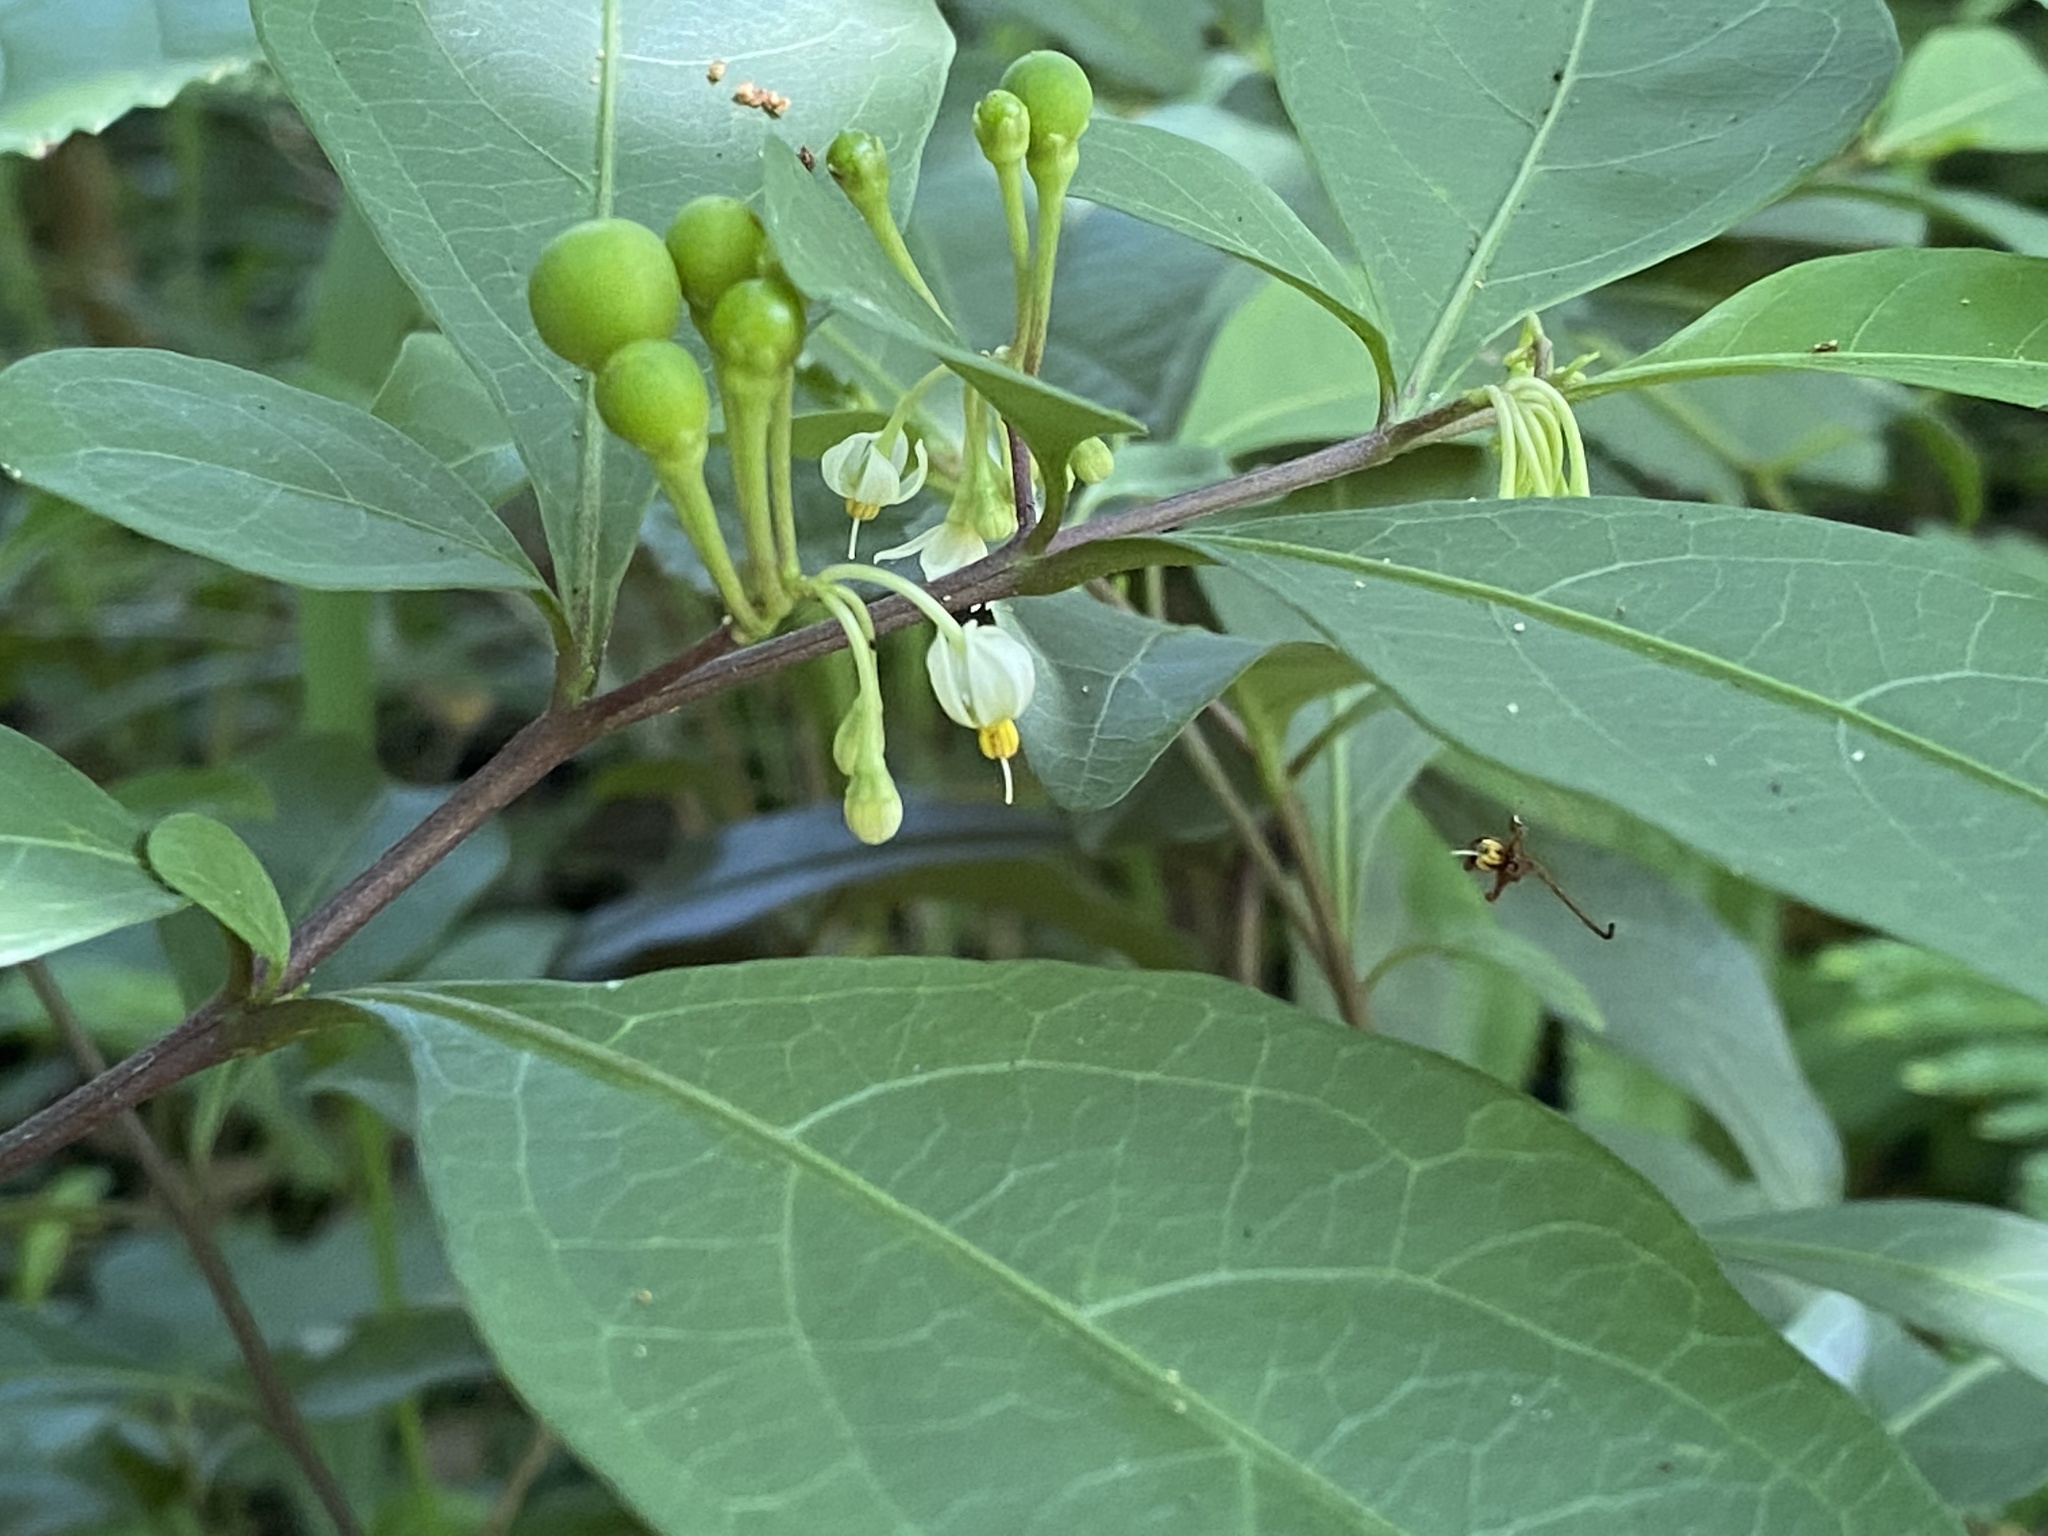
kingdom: Plantae
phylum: Tracheophyta
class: Magnoliopsida
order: Solanales
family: Solanaceae
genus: Solanum
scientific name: Solanum diphyllum
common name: Twoleaf nightshade
